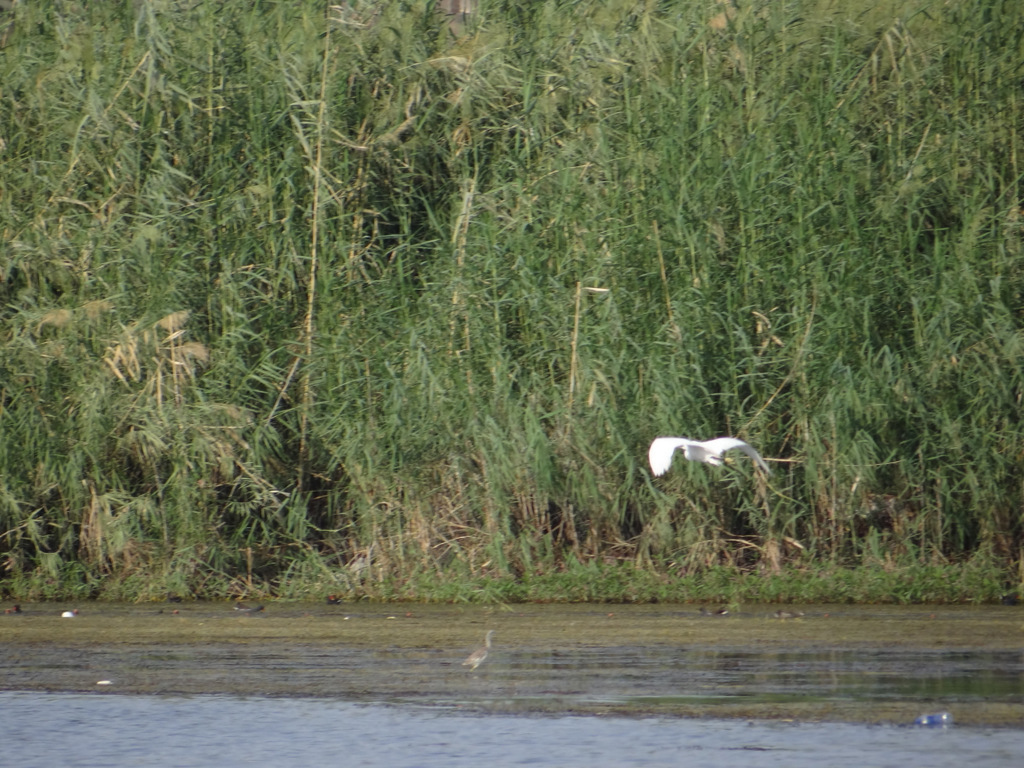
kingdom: Animalia
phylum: Chordata
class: Aves
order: Pelecaniformes
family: Ardeidae
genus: Egretta
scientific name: Egretta garzetta
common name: Little egret
